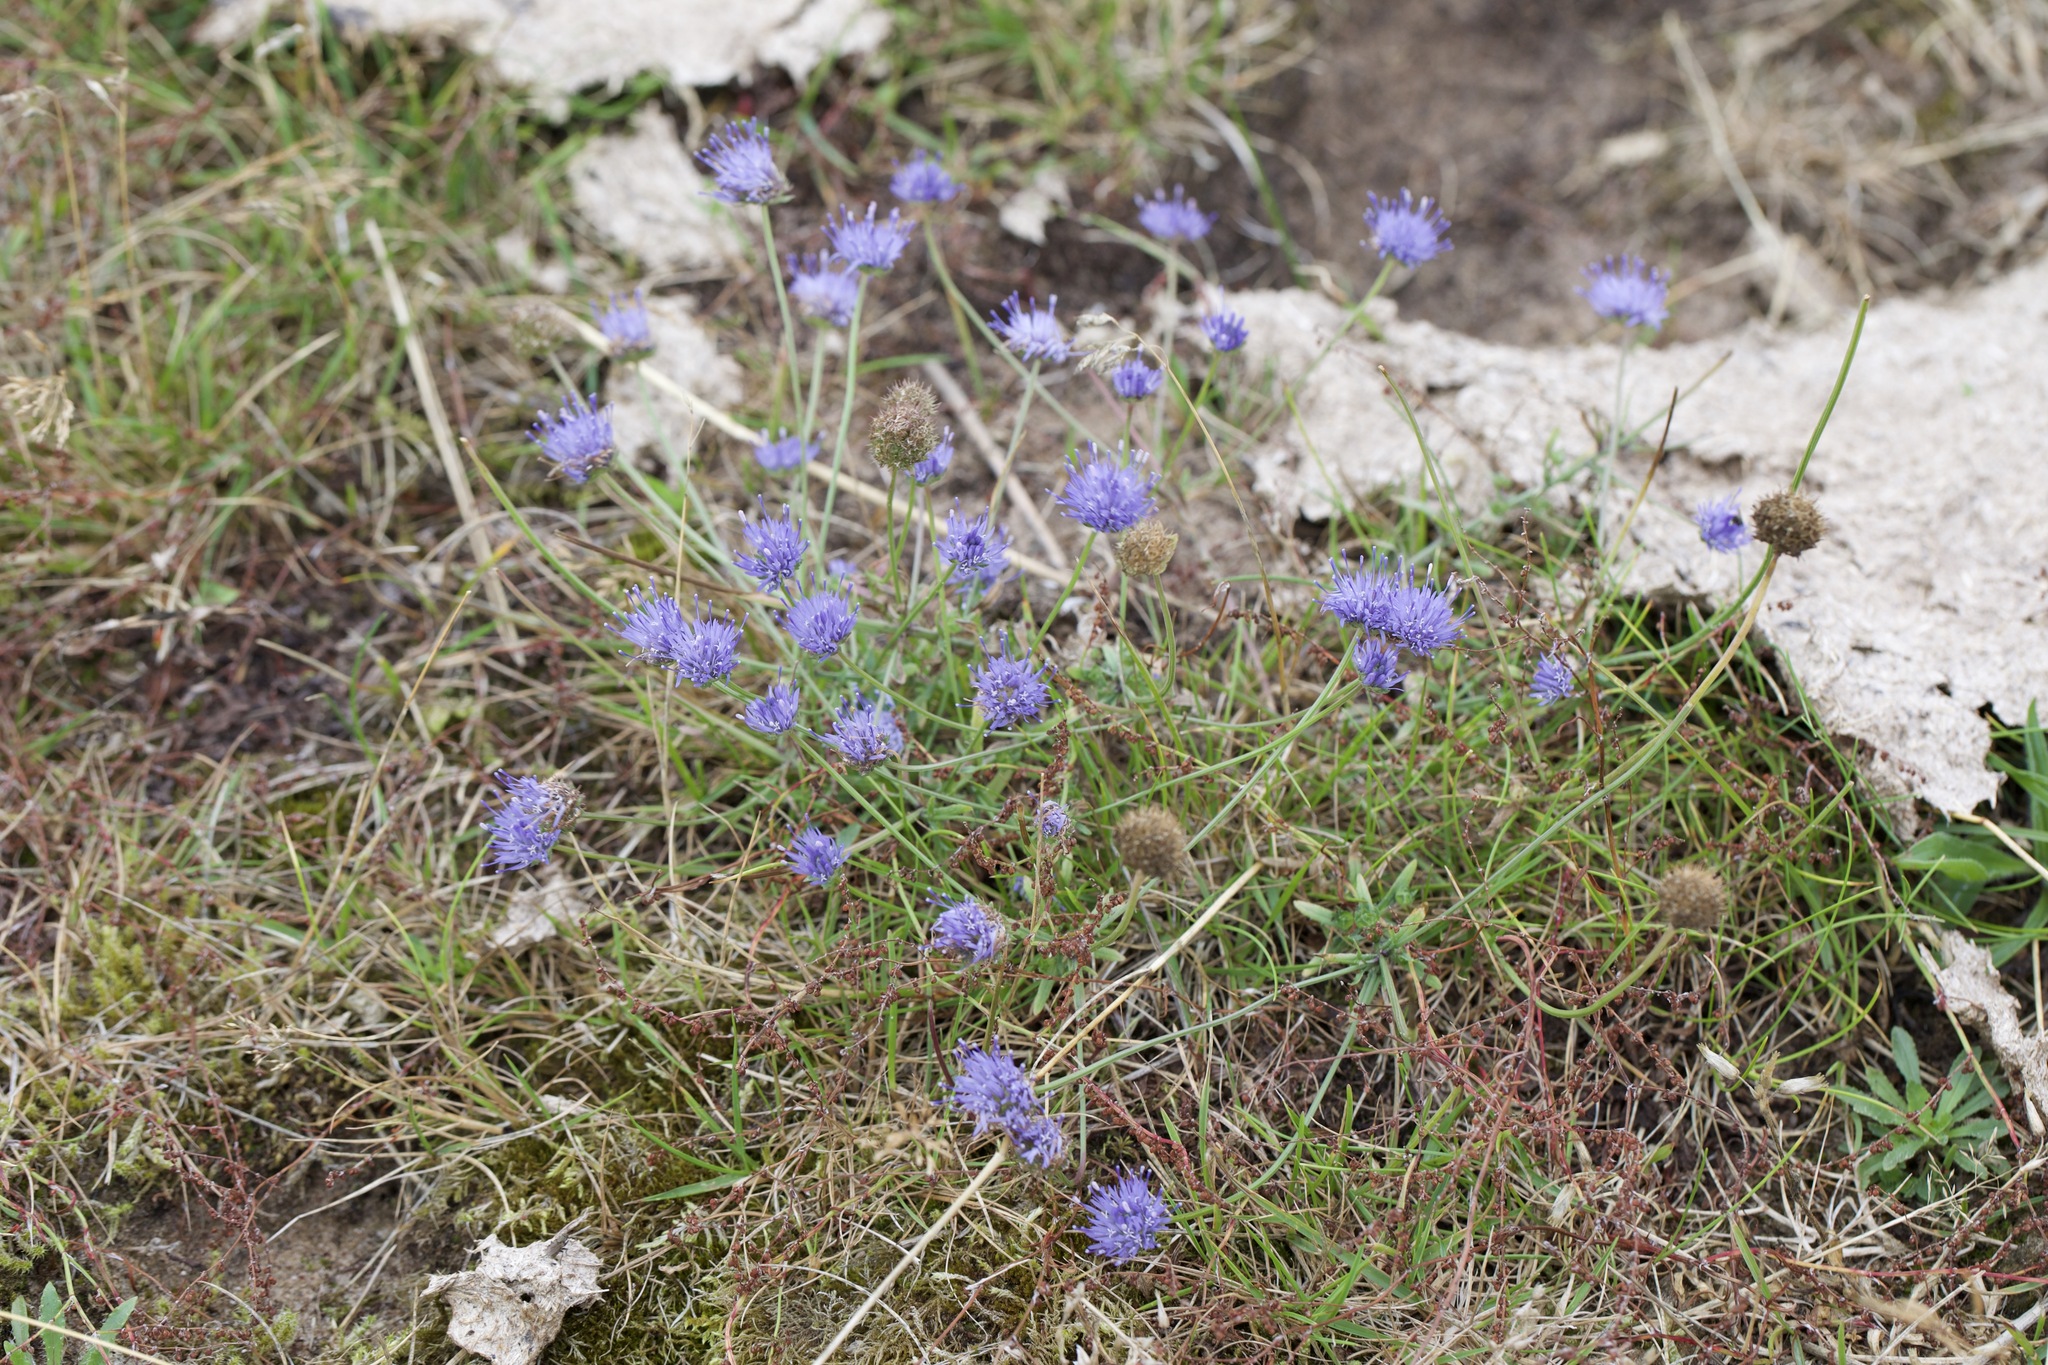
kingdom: Plantae
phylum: Tracheophyta
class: Magnoliopsida
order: Asterales
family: Campanulaceae
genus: Jasione
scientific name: Jasione montana
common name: Sheep's-bit
